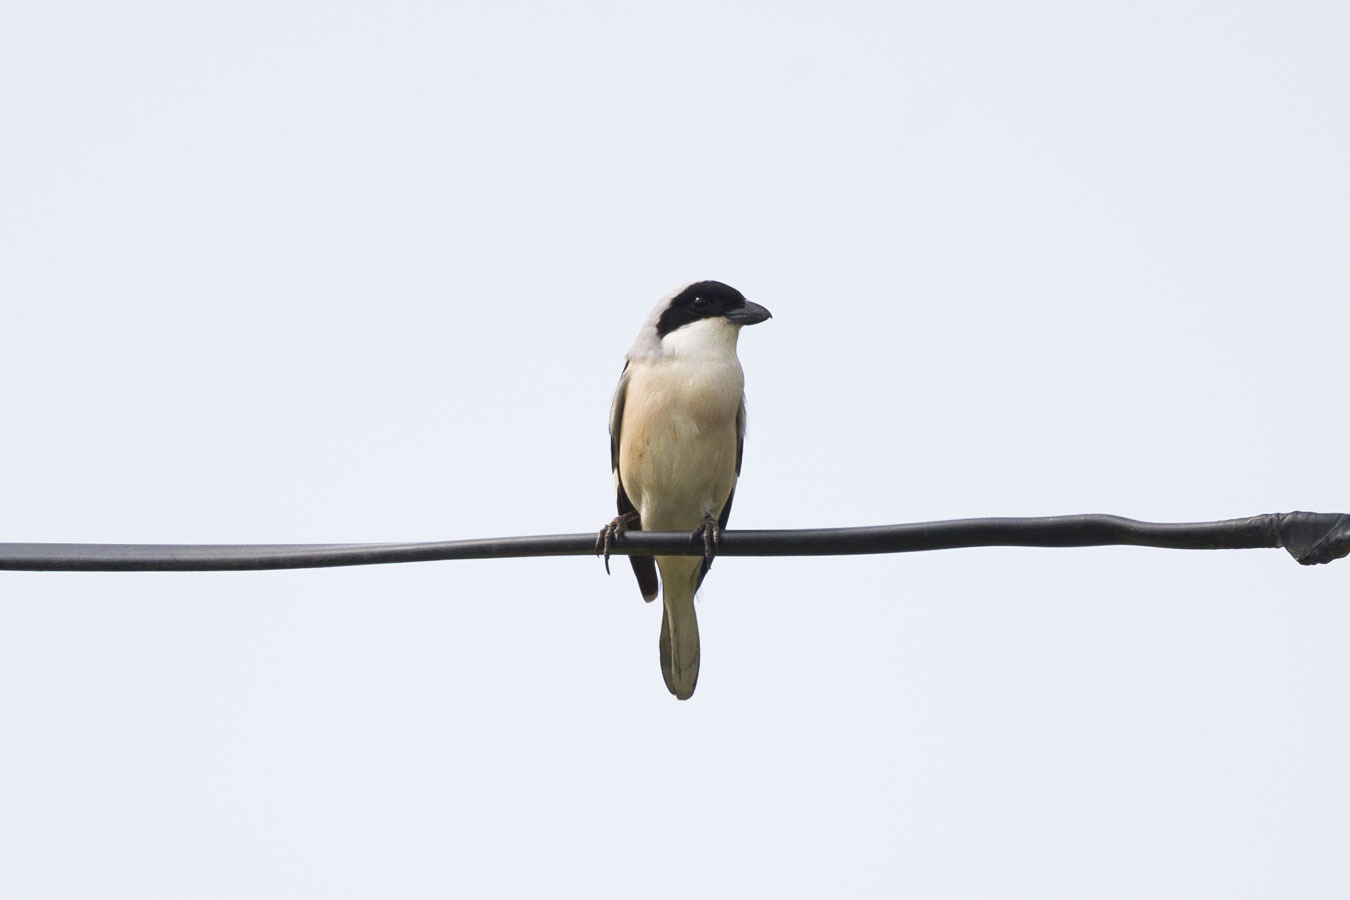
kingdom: Animalia
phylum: Chordata
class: Aves
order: Passeriformes
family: Laniidae
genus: Lanius
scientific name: Lanius minor
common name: Lesser grey shrike
